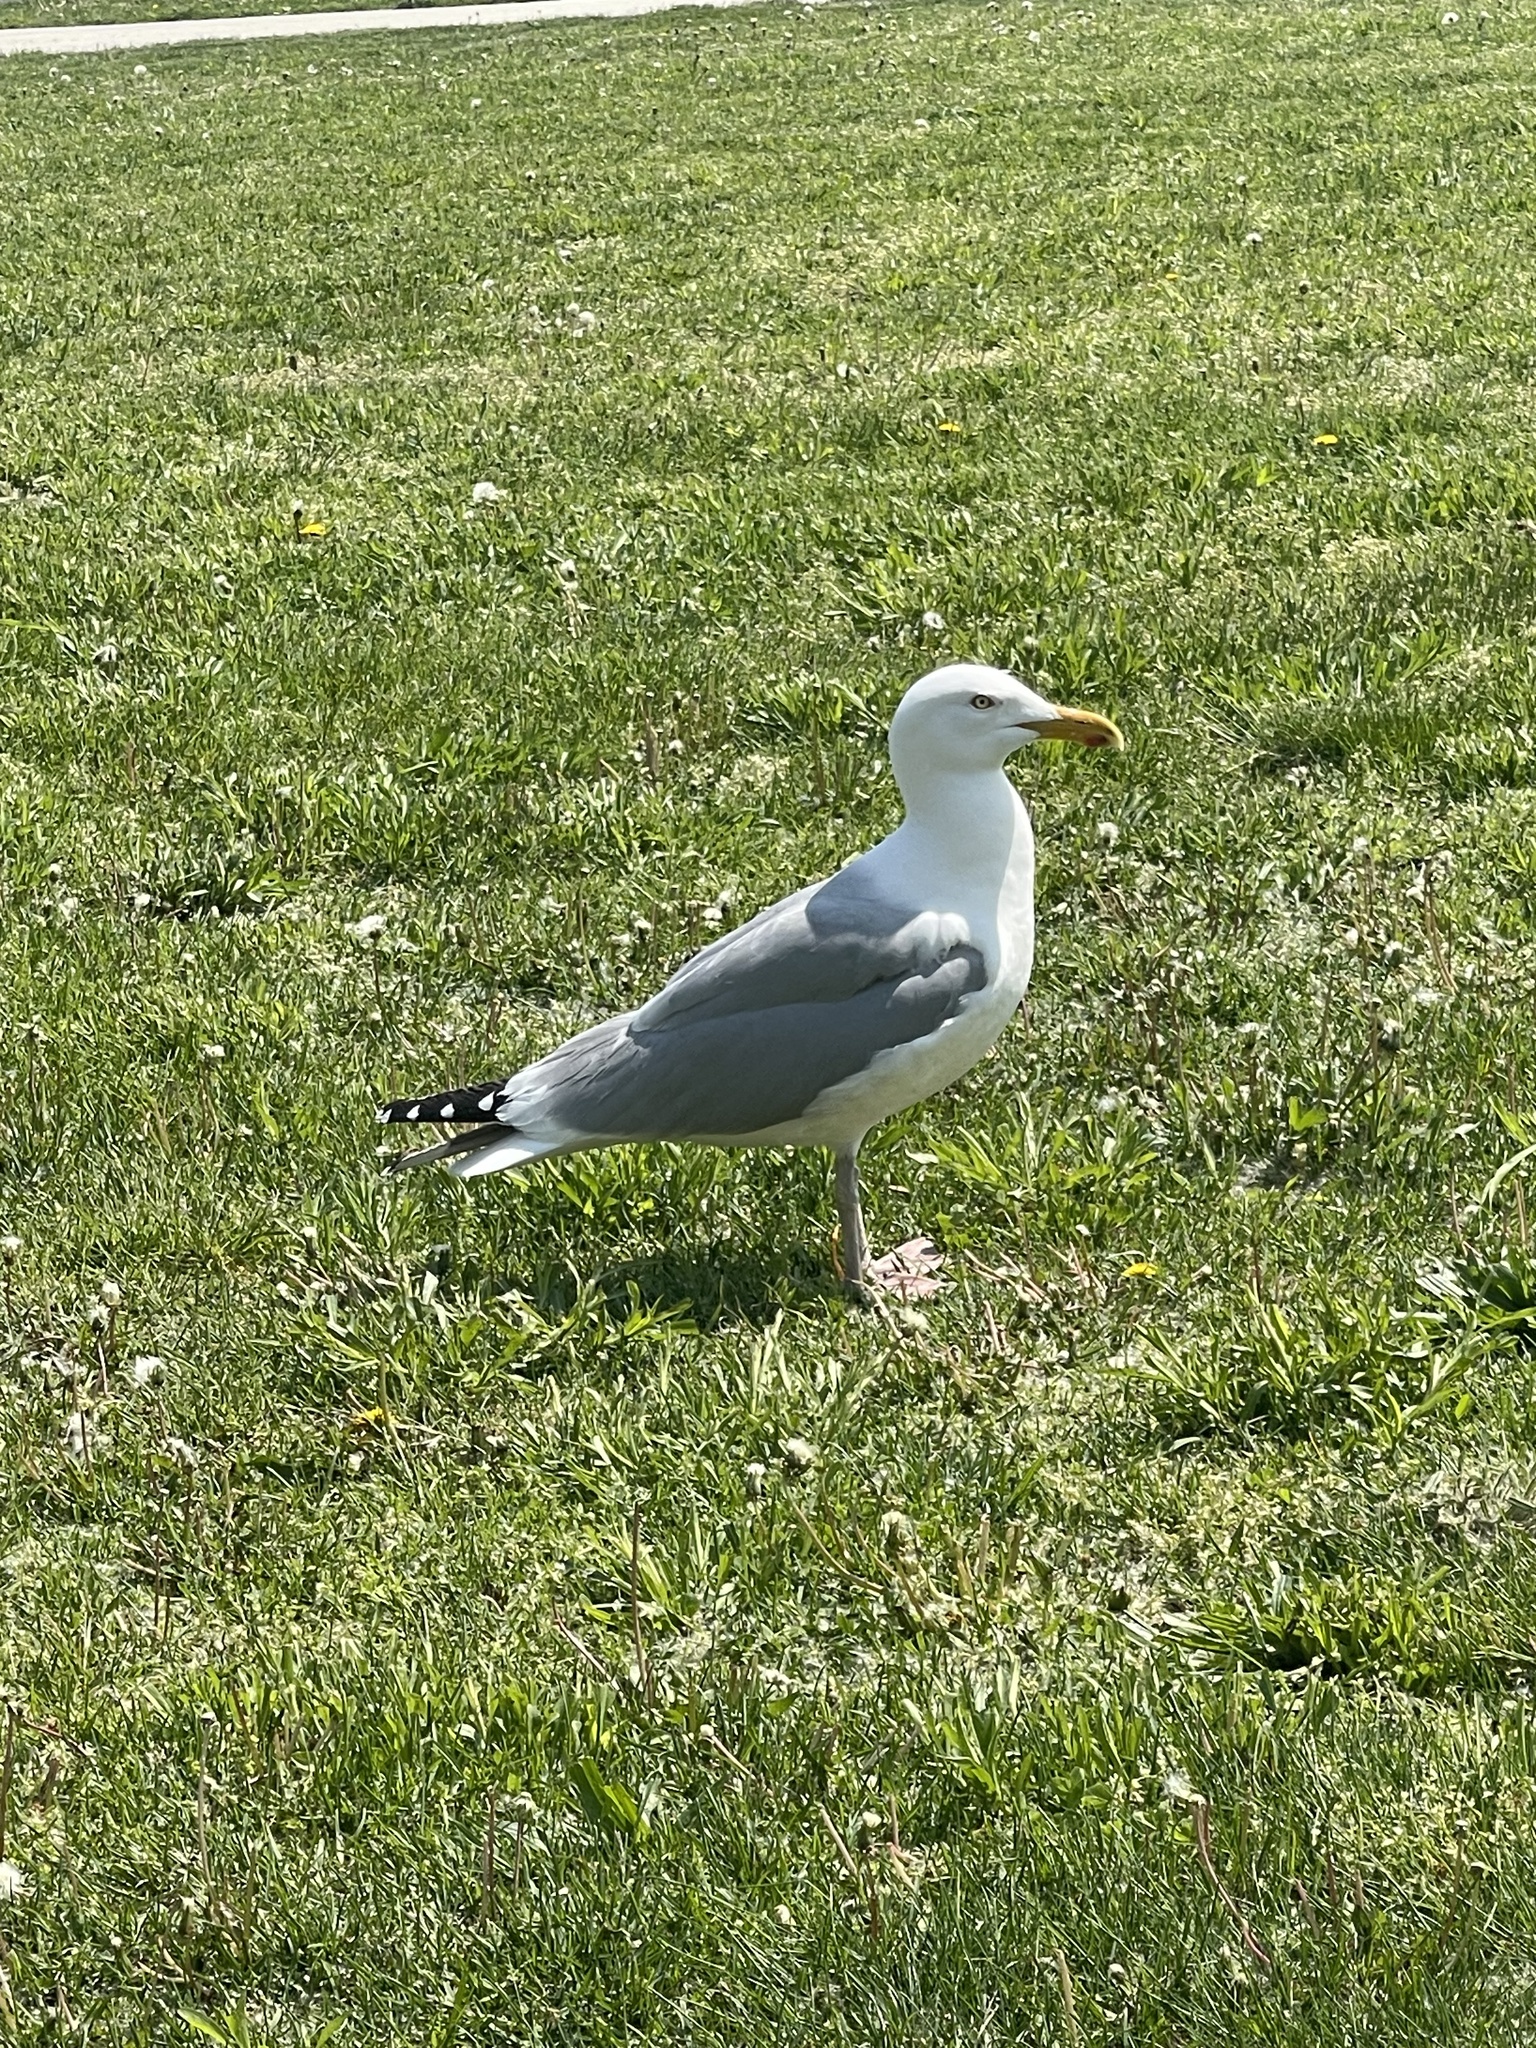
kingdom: Animalia
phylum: Chordata
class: Aves
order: Charadriiformes
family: Laridae
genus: Larus
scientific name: Larus argentatus
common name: Herring gull
